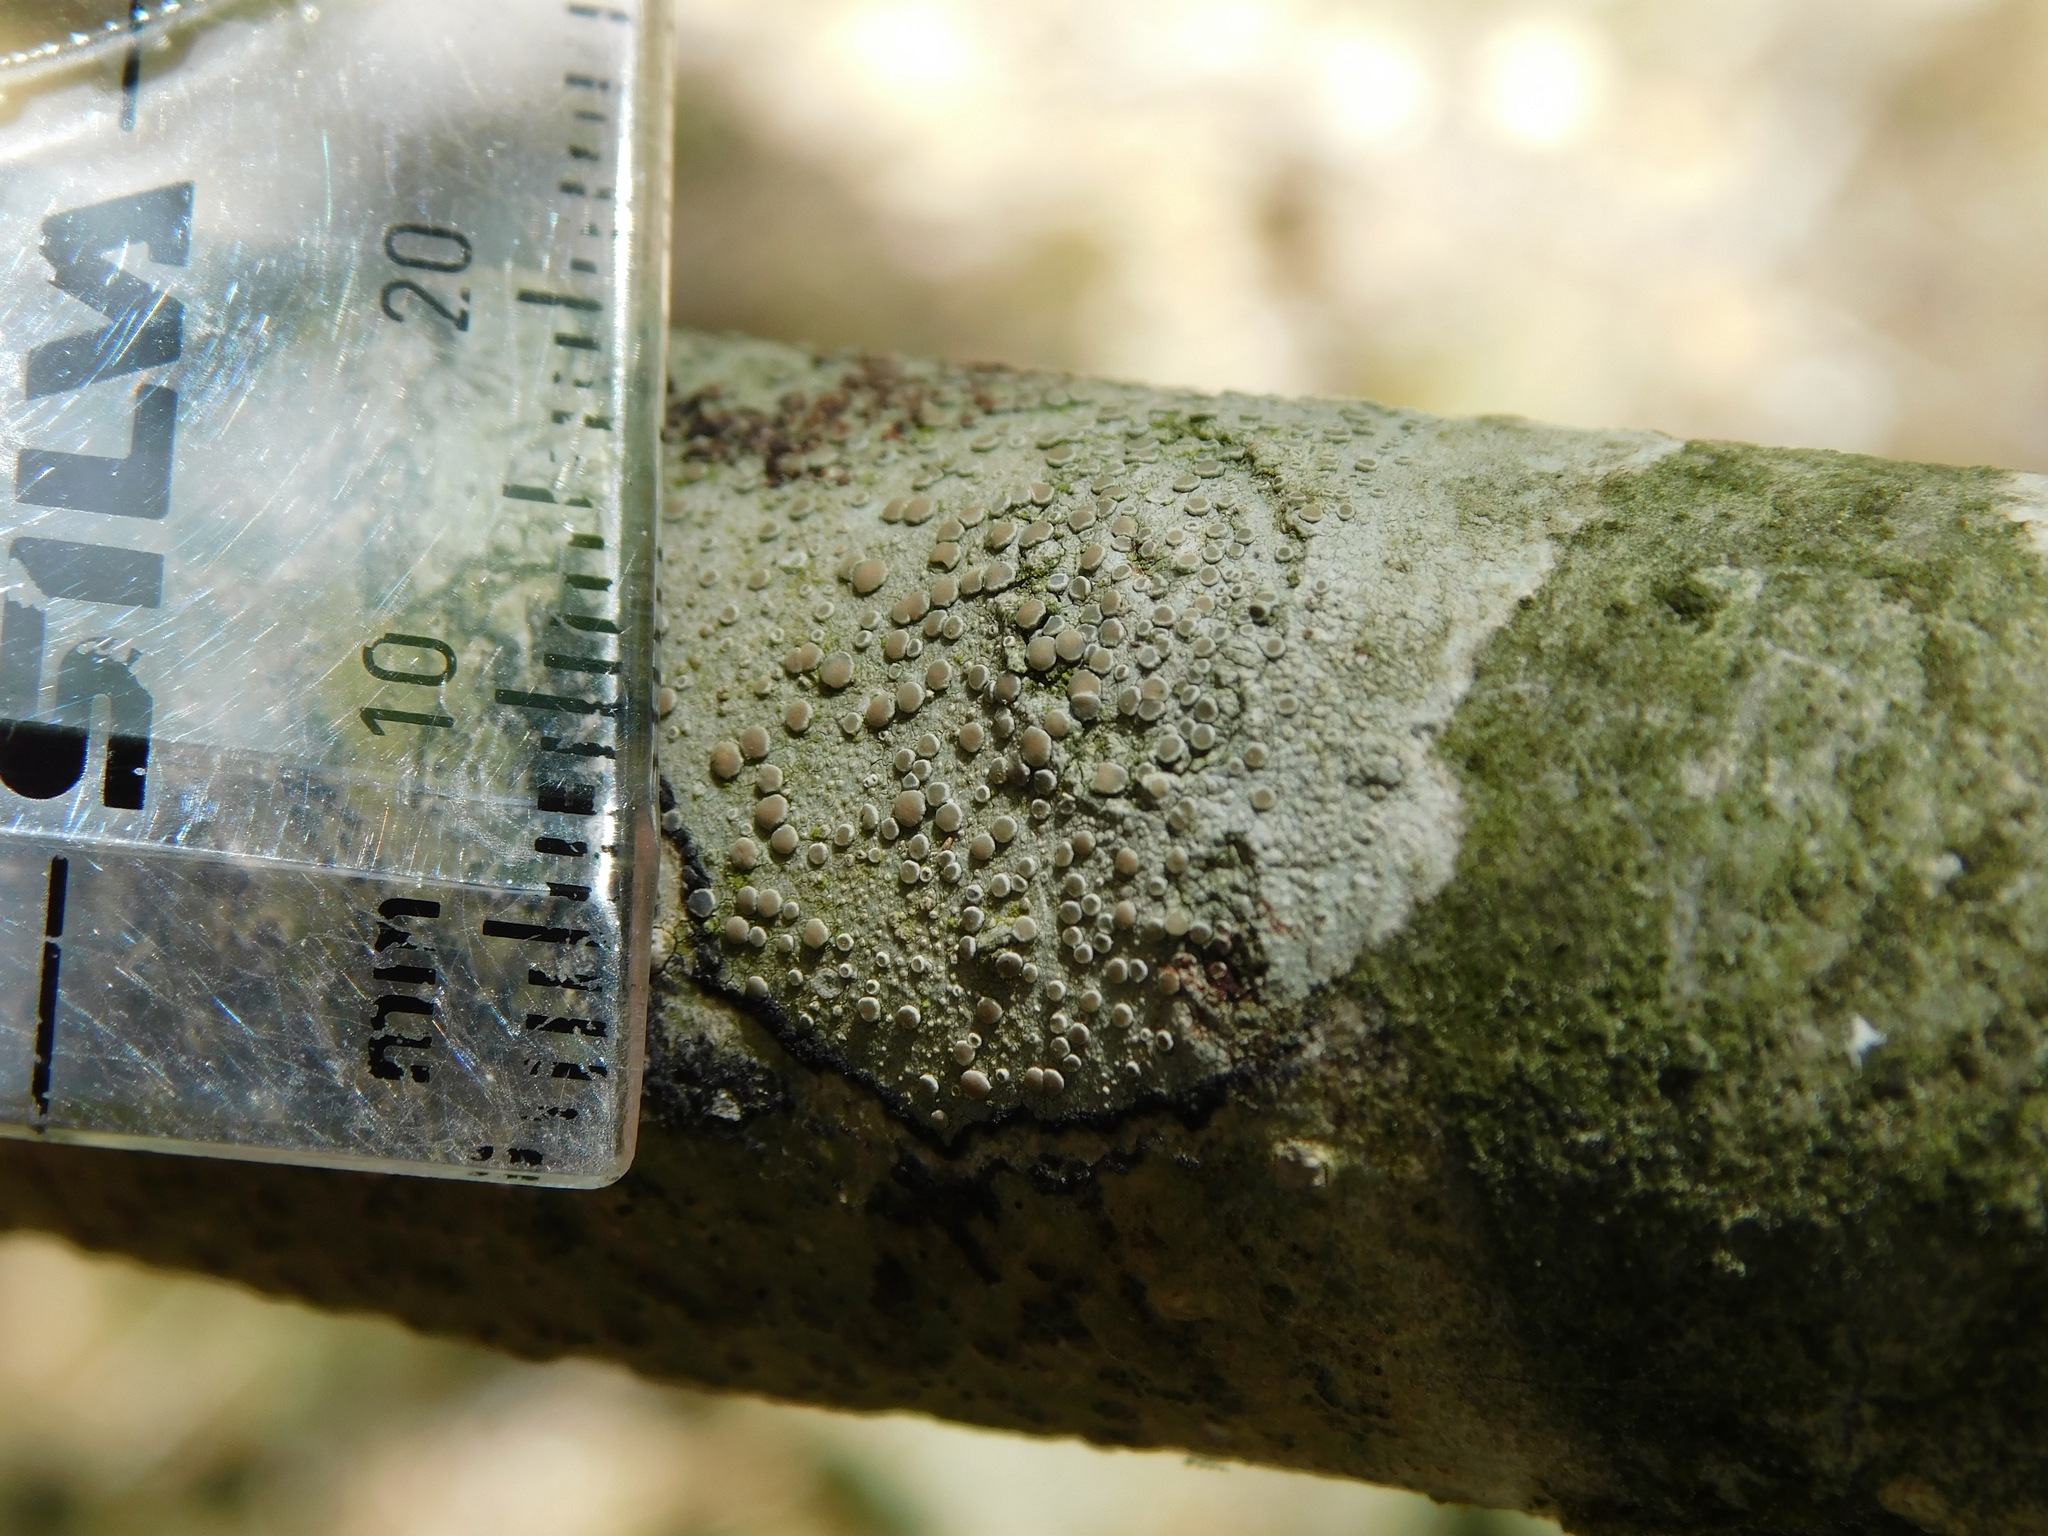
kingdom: Fungi
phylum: Ascomycota
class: Lecanoromycetes
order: Lecanorales
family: Lecanoraceae
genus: Lecanora
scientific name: Lecanora caesiorubella
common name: Frosted rim-lichen
